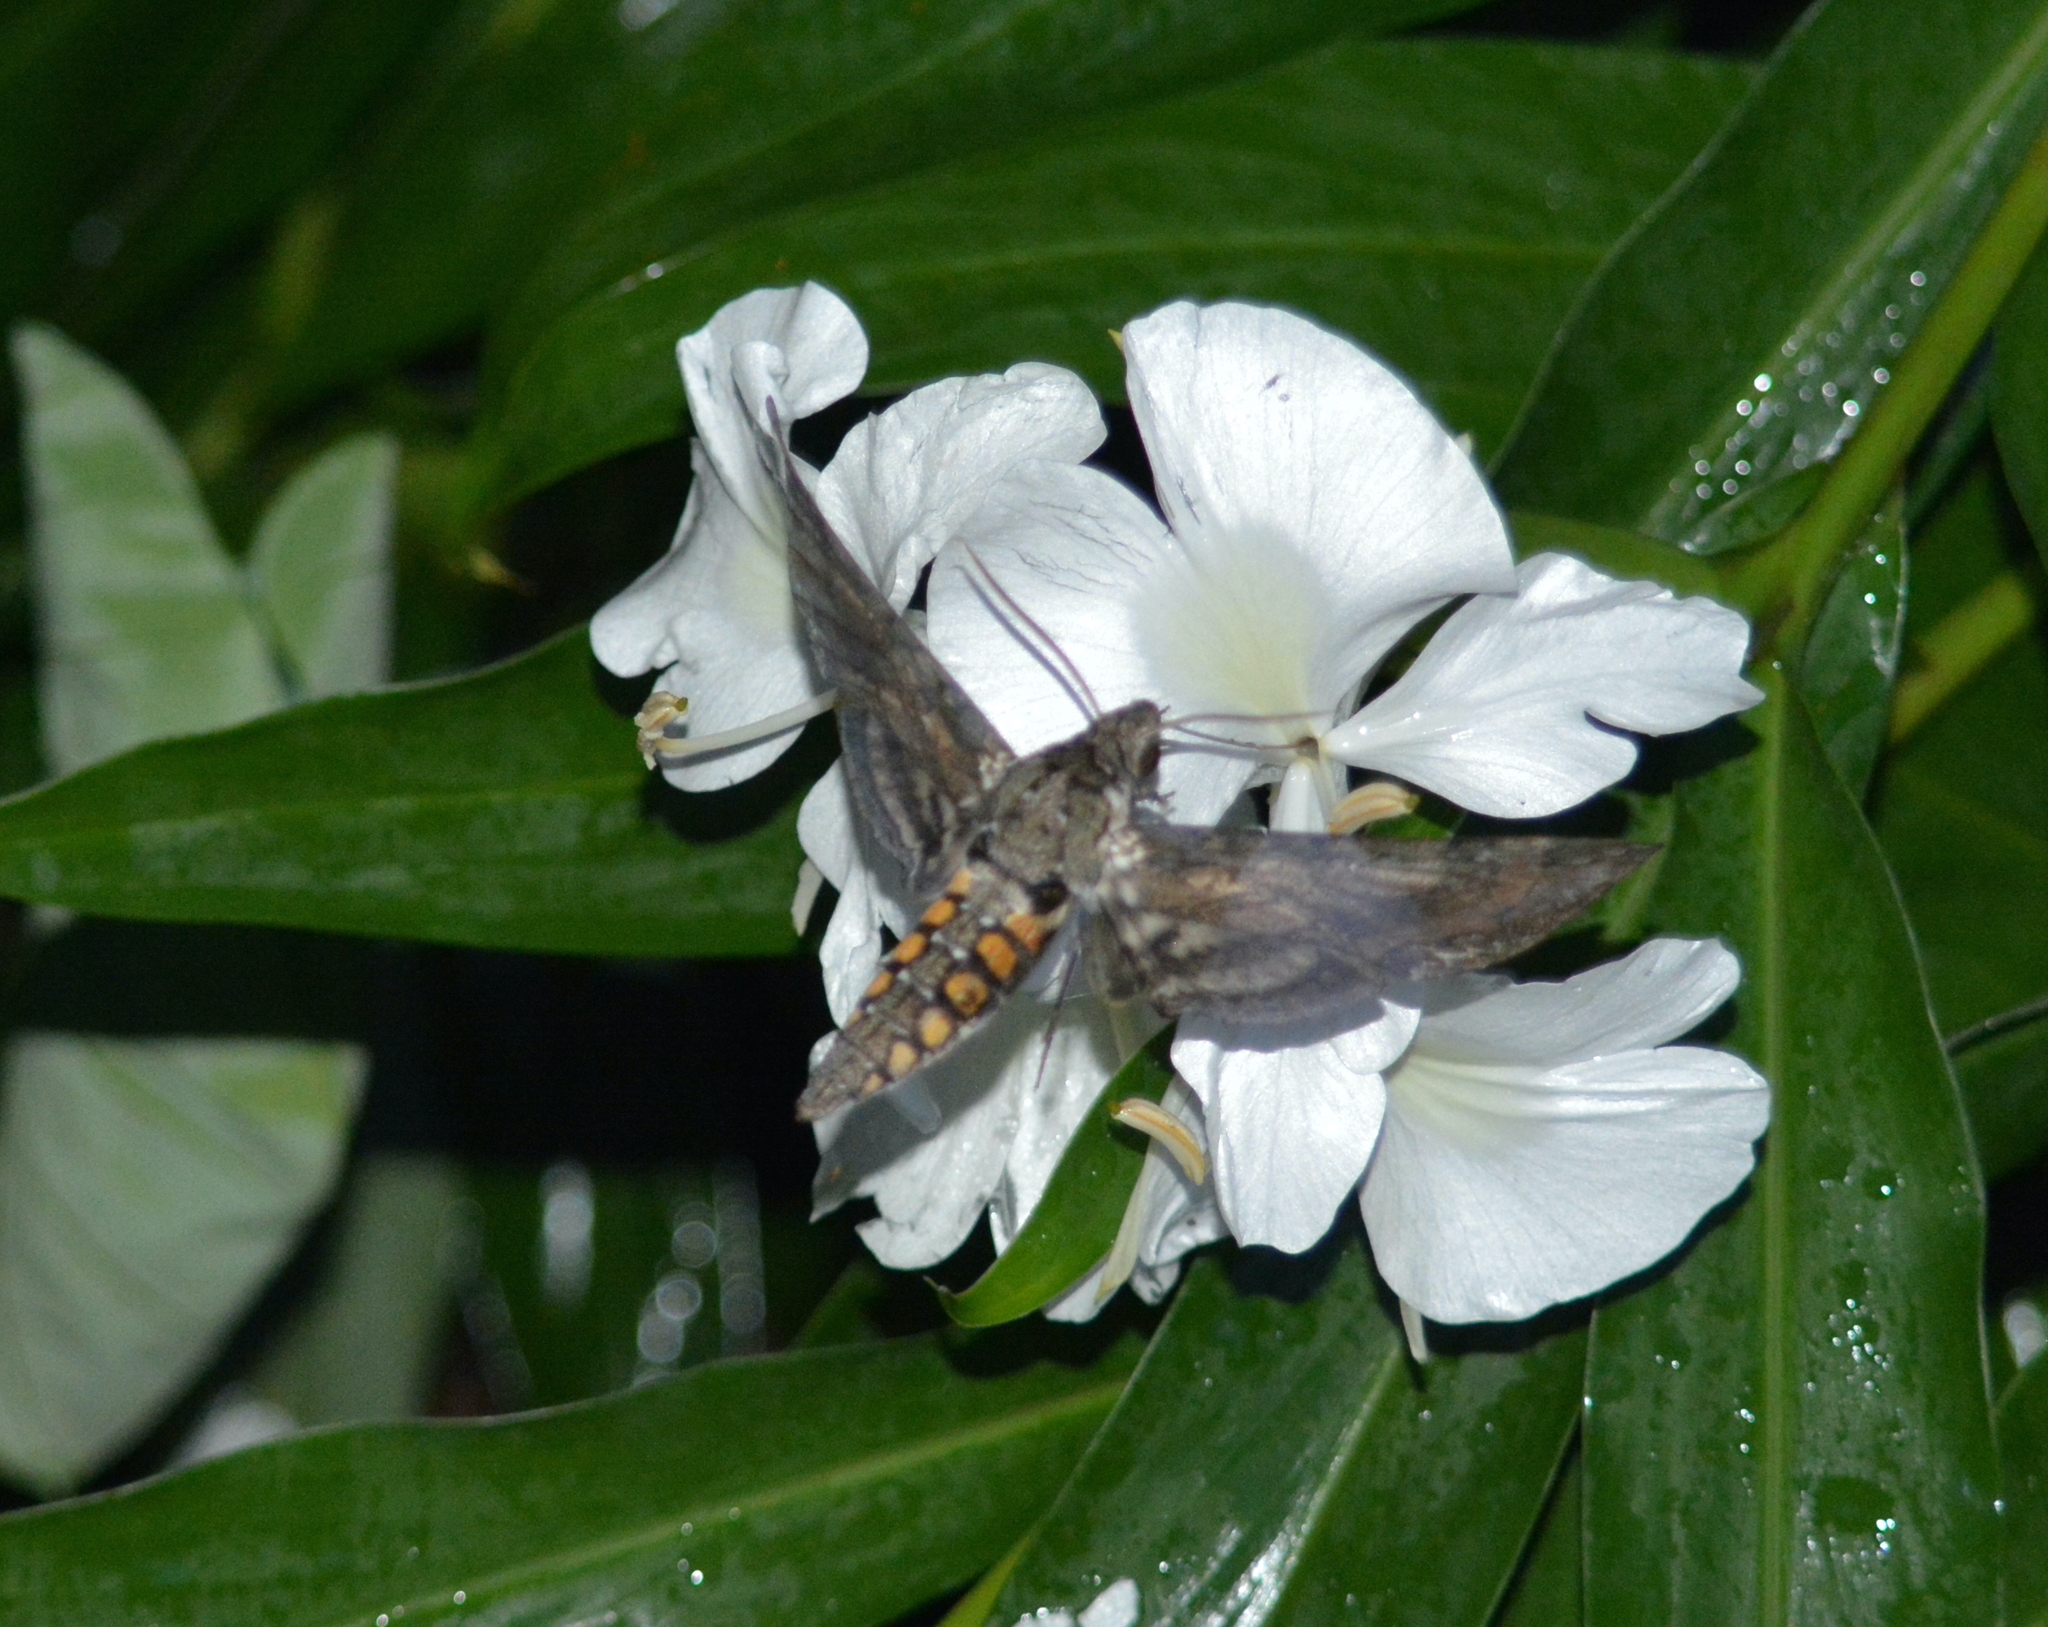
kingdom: Animalia
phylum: Arthropoda
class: Insecta
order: Lepidoptera
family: Sphingidae
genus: Manduca
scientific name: Manduca sexta
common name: Carolina sphinx
